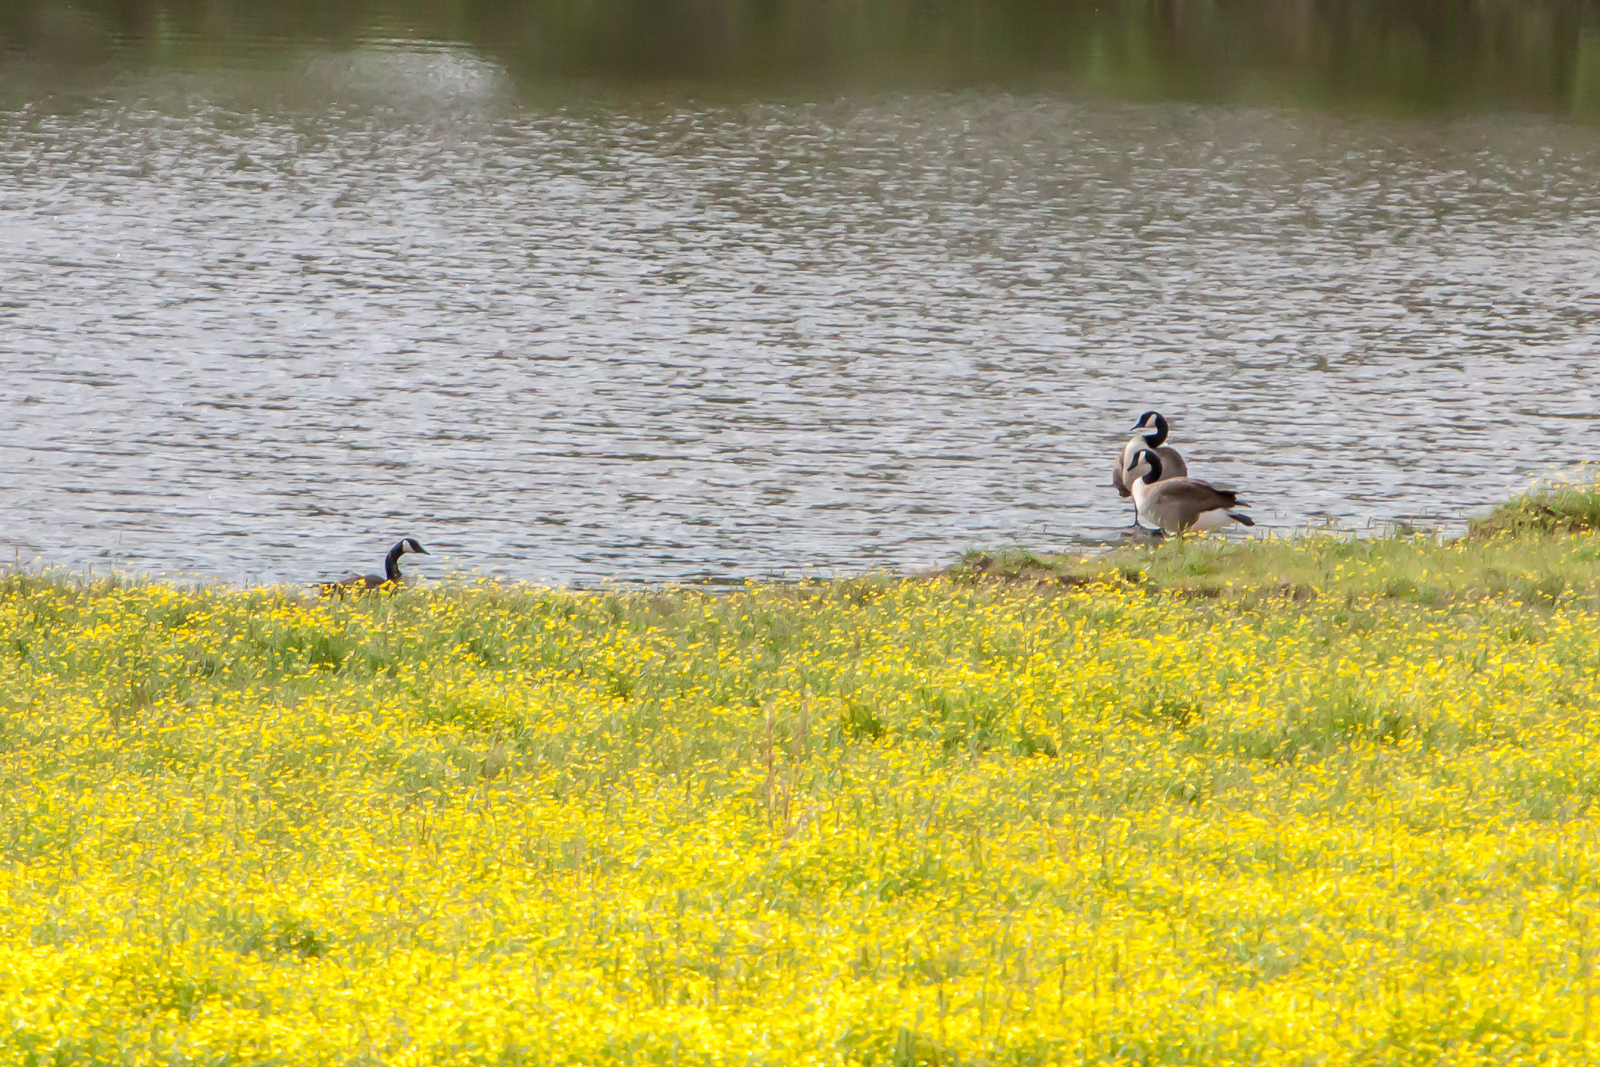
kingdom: Animalia
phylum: Chordata
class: Aves
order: Anseriformes
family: Anatidae
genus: Branta
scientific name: Branta canadensis
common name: Canada goose
